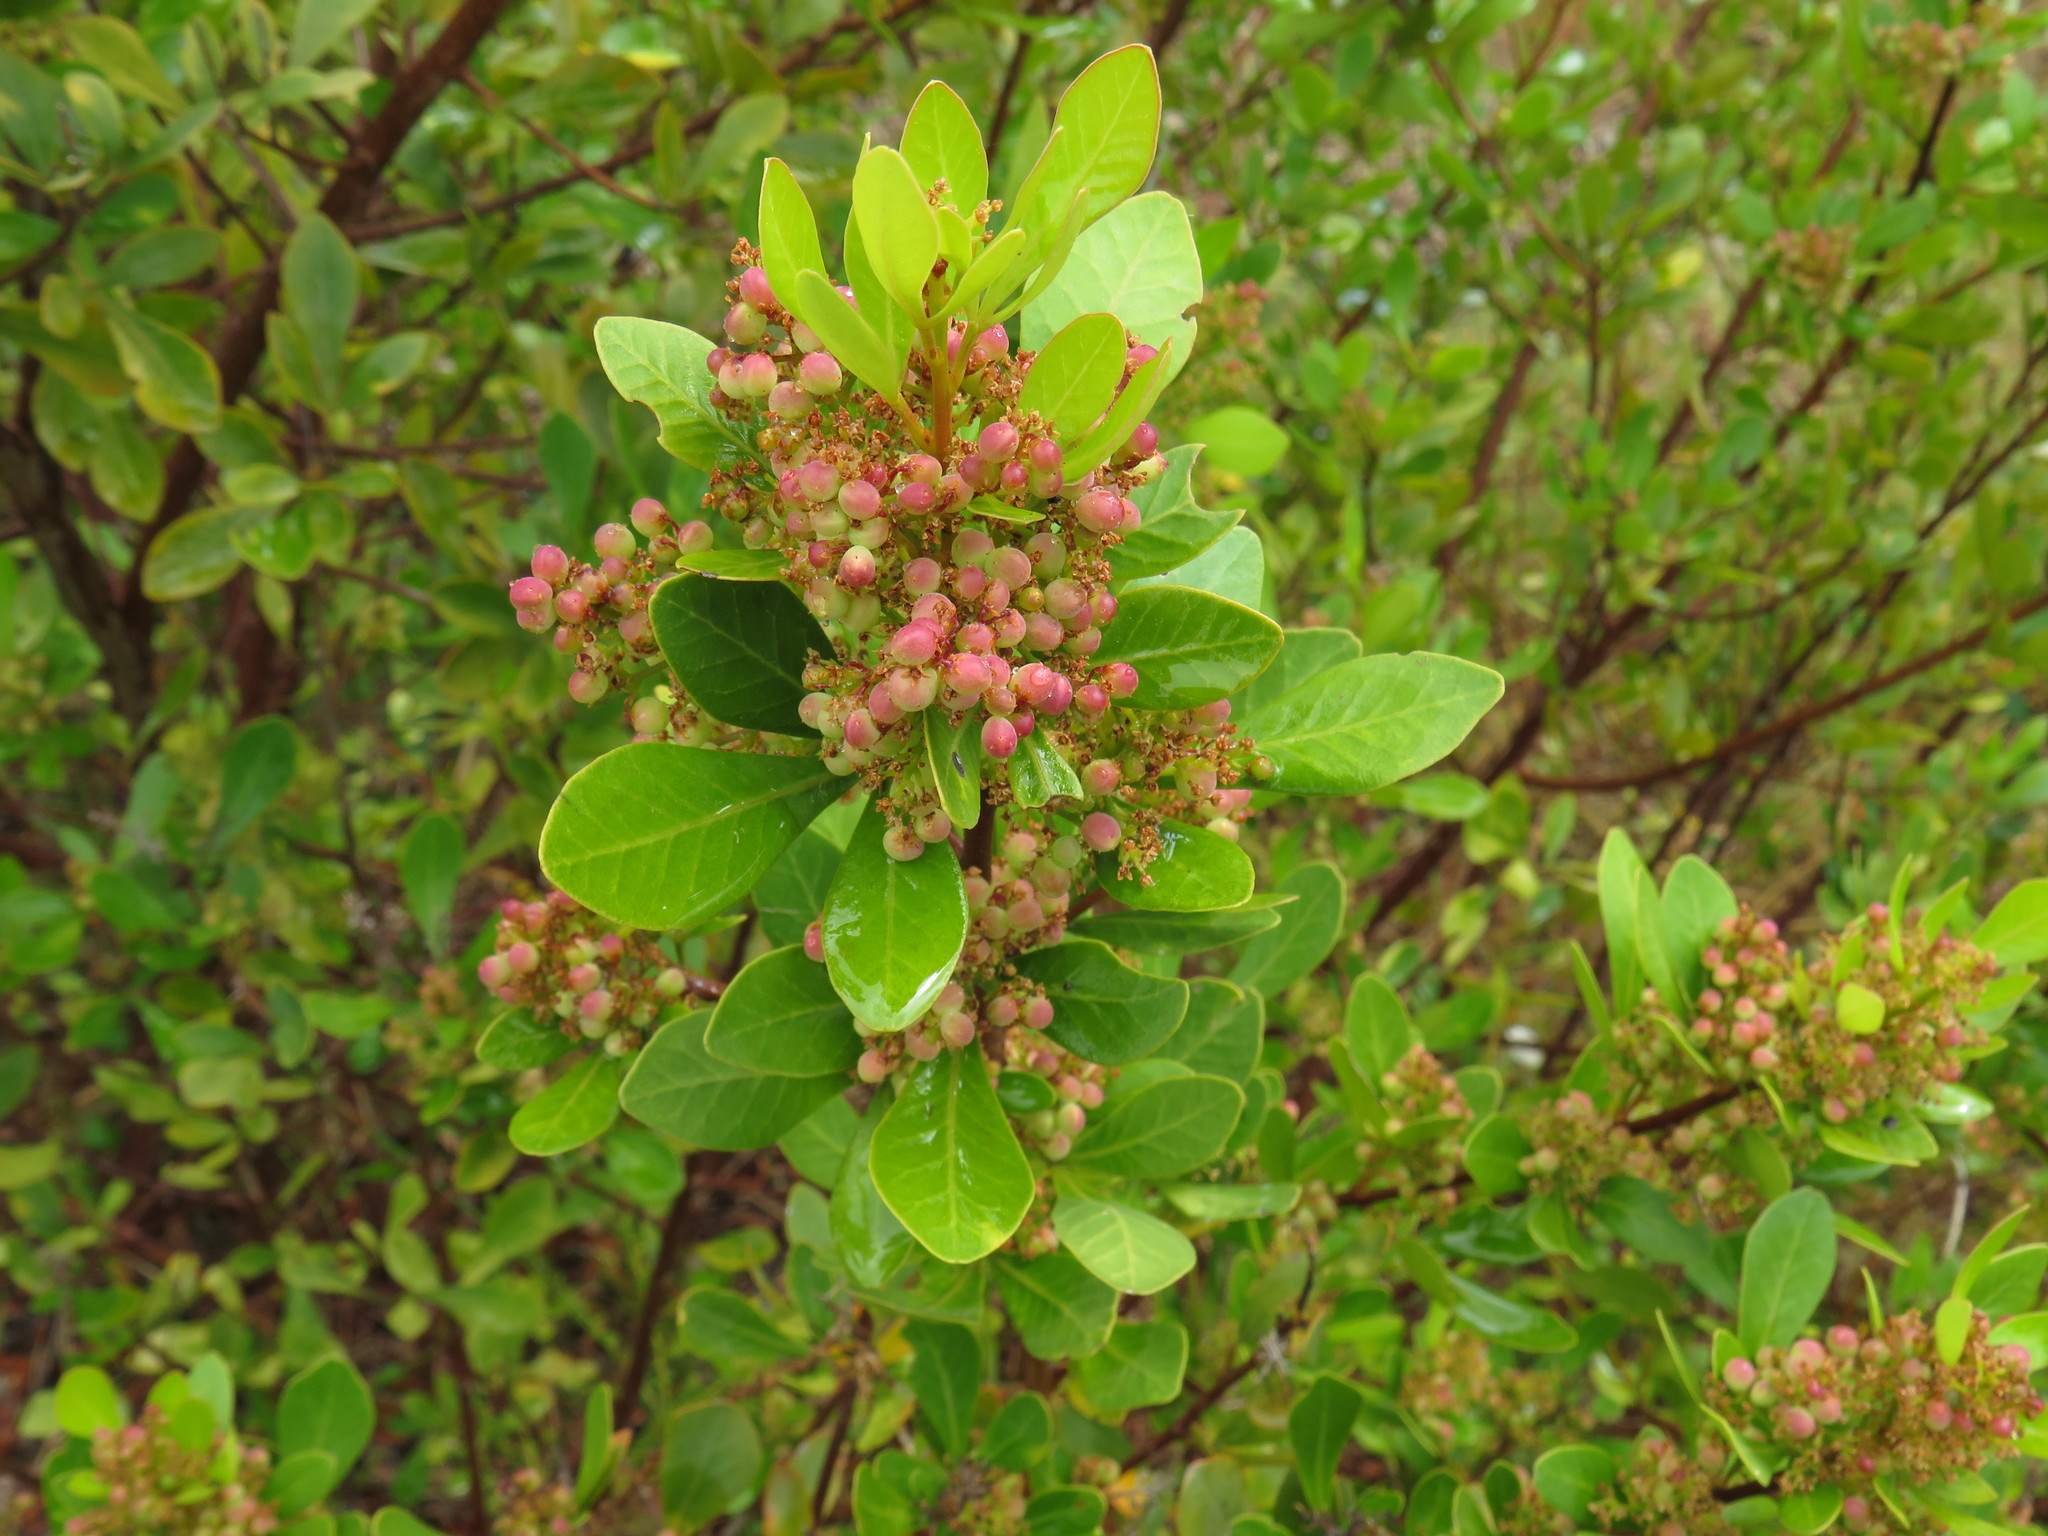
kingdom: Plantae
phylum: Tracheophyta
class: Magnoliopsida
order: Sapindales
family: Anacardiaceae
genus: Searsia
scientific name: Searsia lucida
